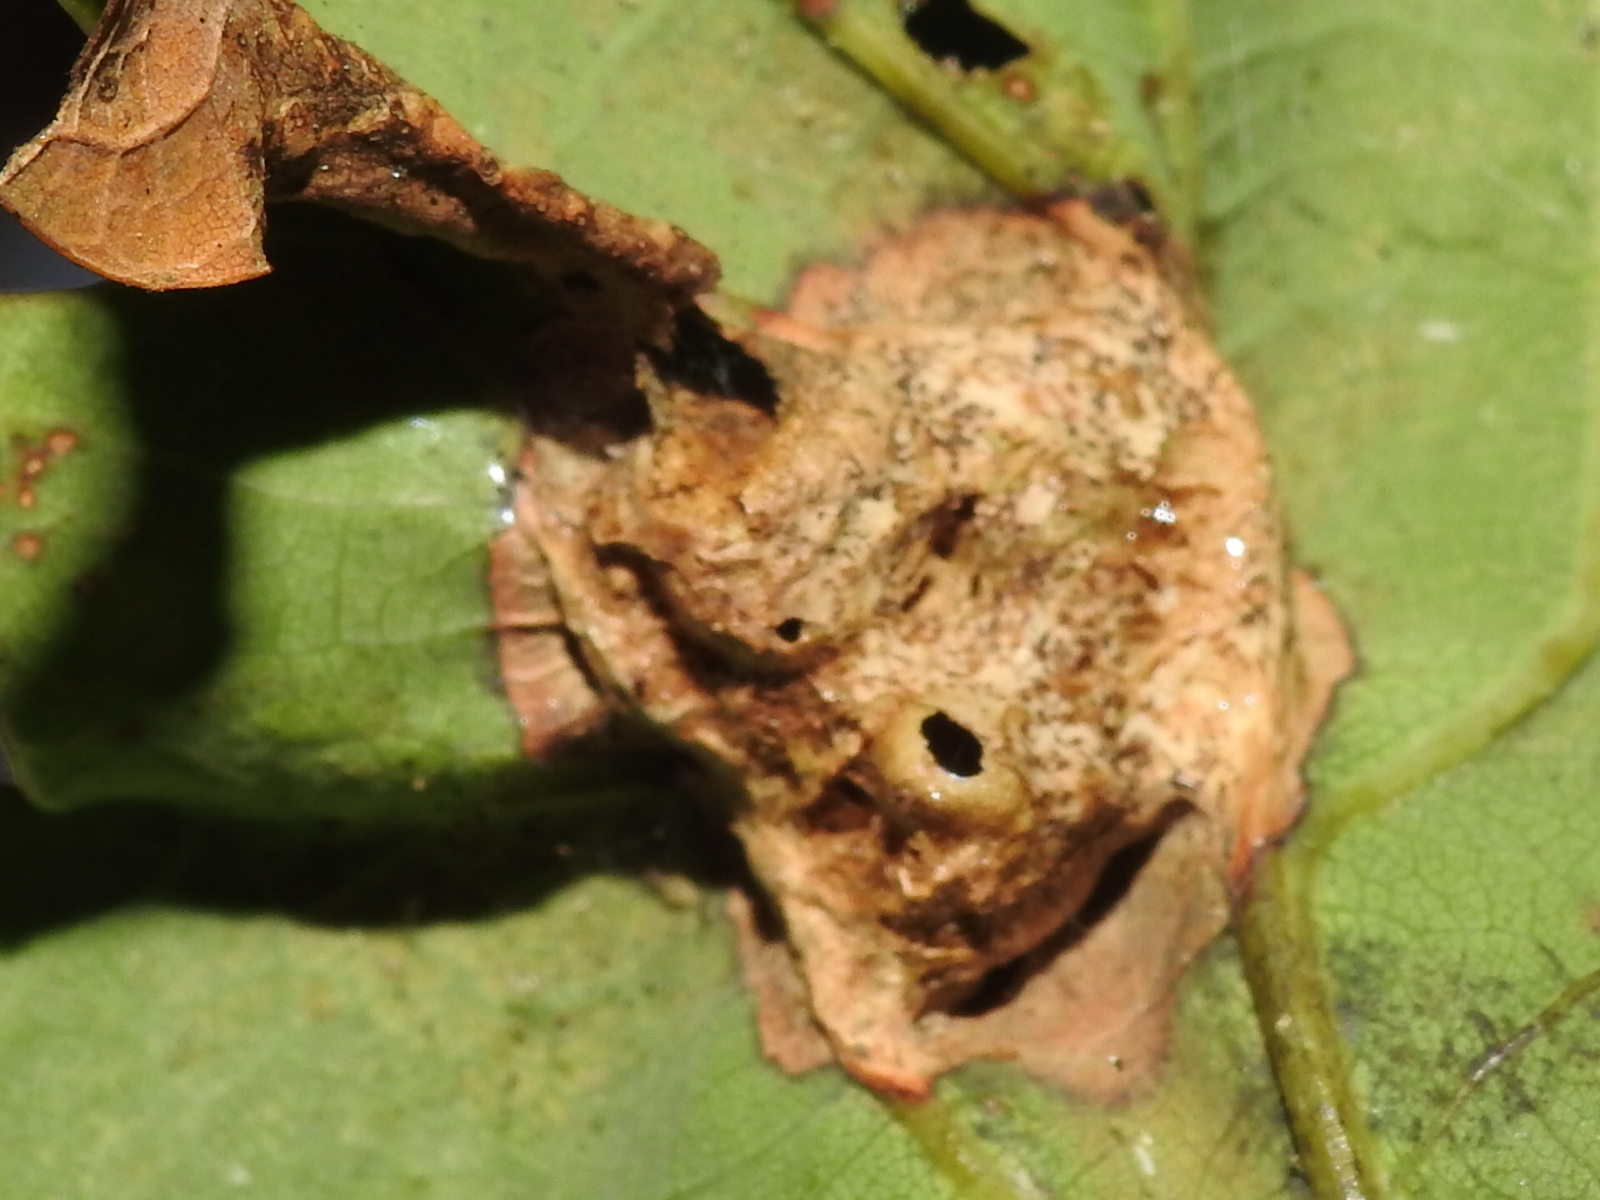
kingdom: Animalia
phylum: Arthropoda
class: Insecta
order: Hymenoptera
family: Cynipidae
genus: Andricus
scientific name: Andricus curvator
